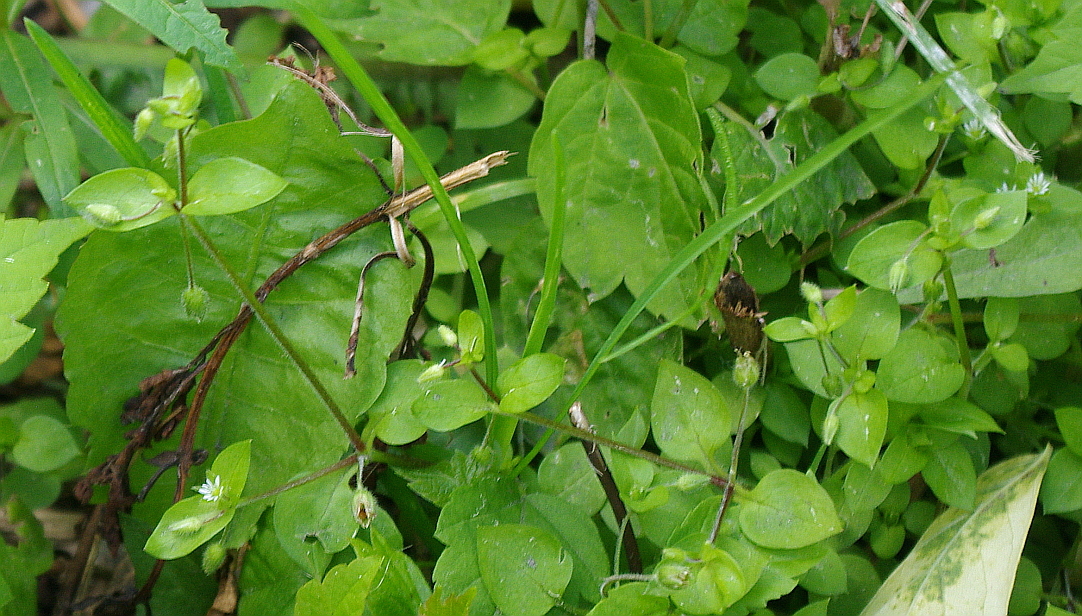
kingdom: Plantae
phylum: Tracheophyta
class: Magnoliopsida
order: Caryophyllales
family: Caryophyllaceae
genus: Stellaria
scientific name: Stellaria media
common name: Common chickweed
